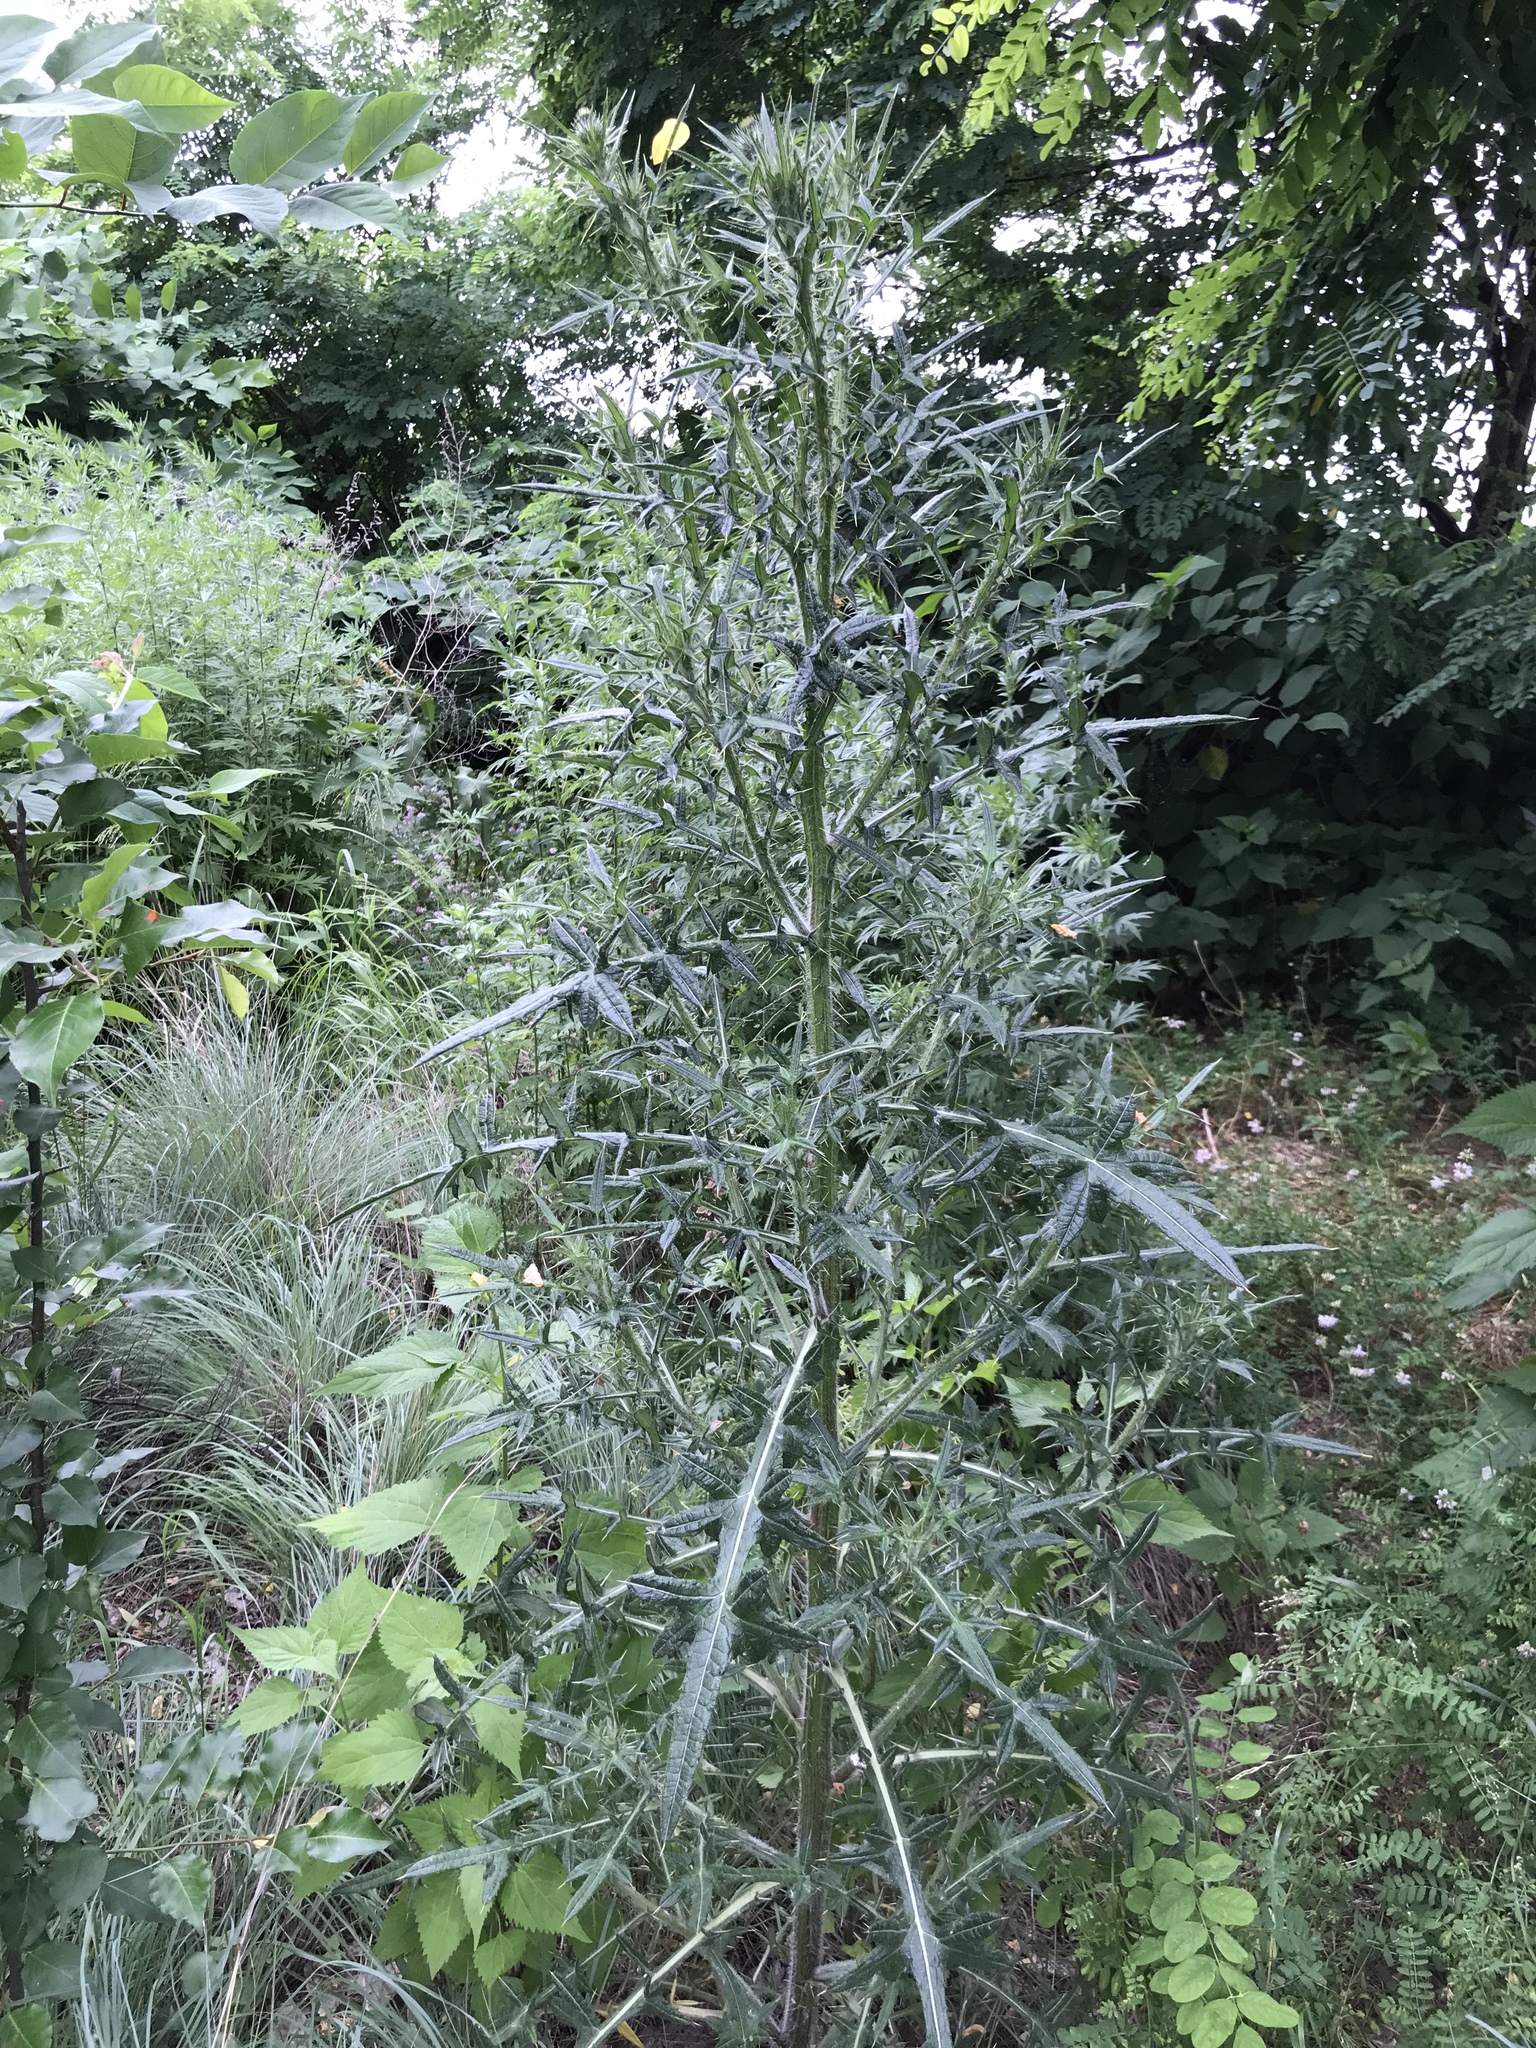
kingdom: Plantae
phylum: Tracheophyta
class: Magnoliopsida
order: Asterales
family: Asteraceae
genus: Cirsium
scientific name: Cirsium vulgare
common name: Bull thistle
